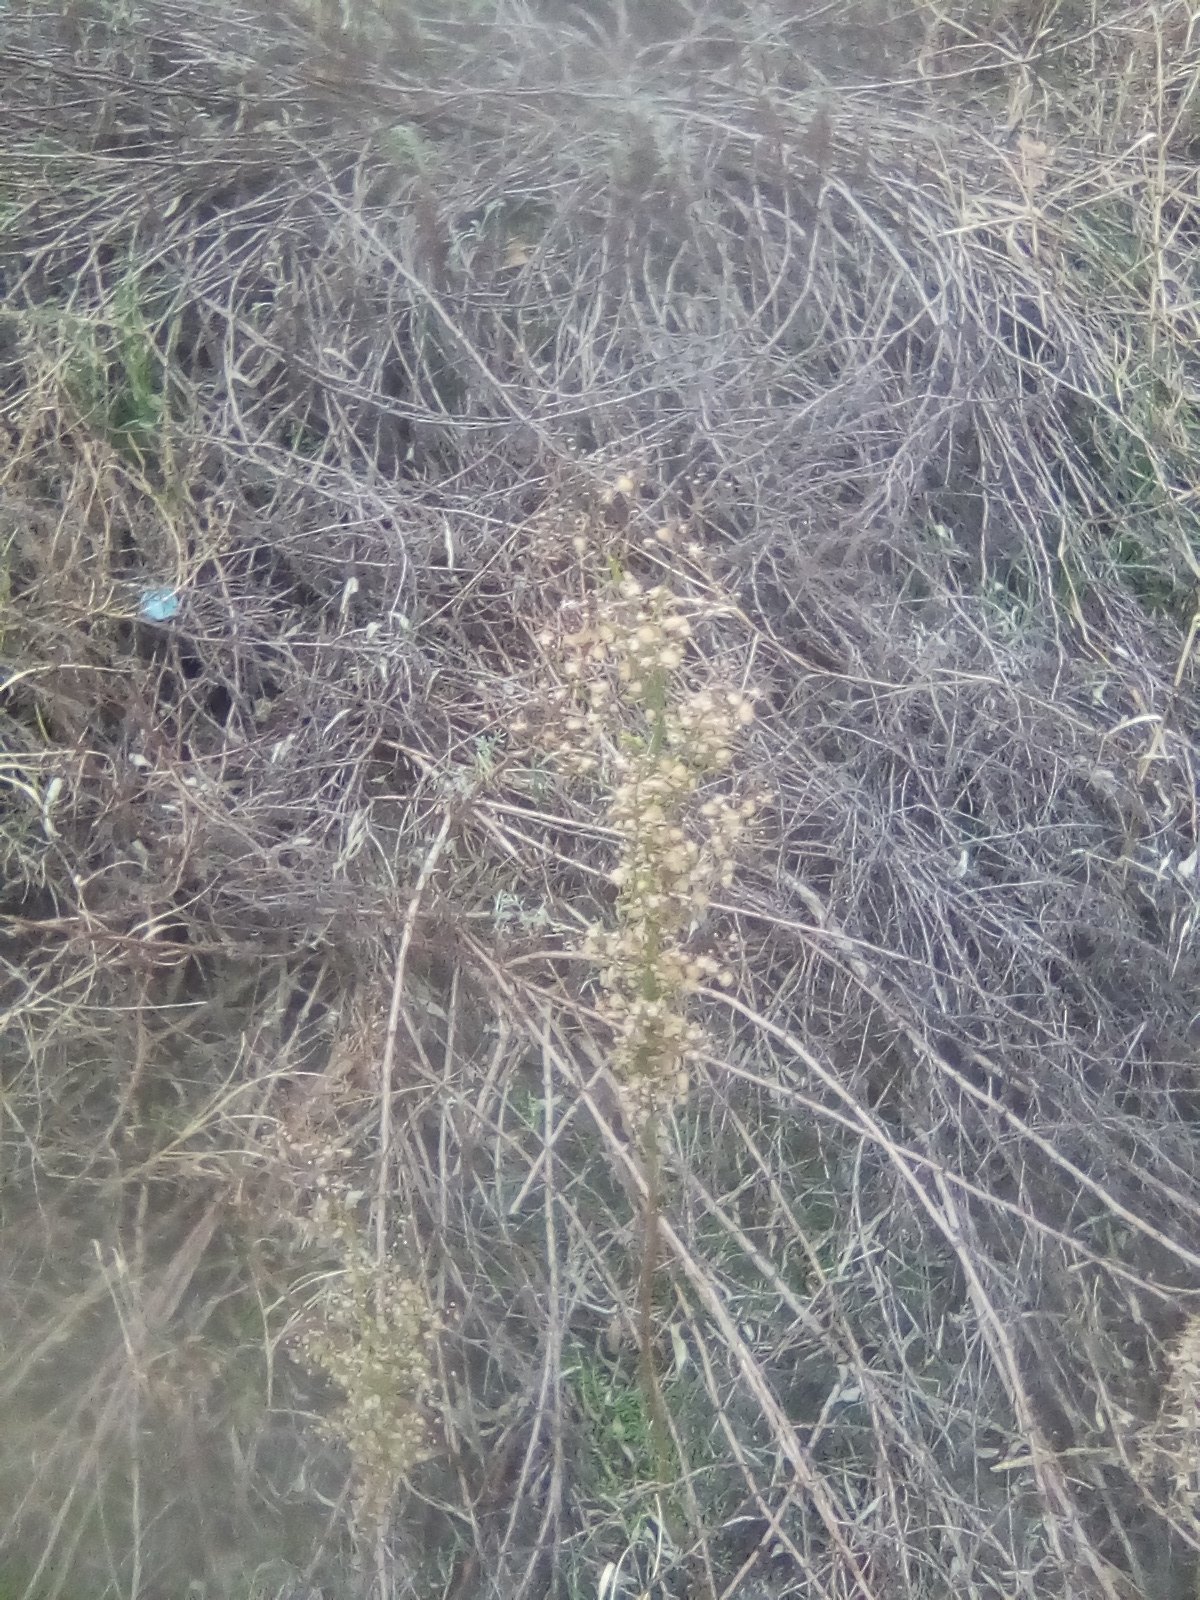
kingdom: Plantae
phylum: Tracheophyta
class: Magnoliopsida
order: Asterales
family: Asteraceae
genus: Erigeron
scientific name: Erigeron canadensis
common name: Canadian fleabane
